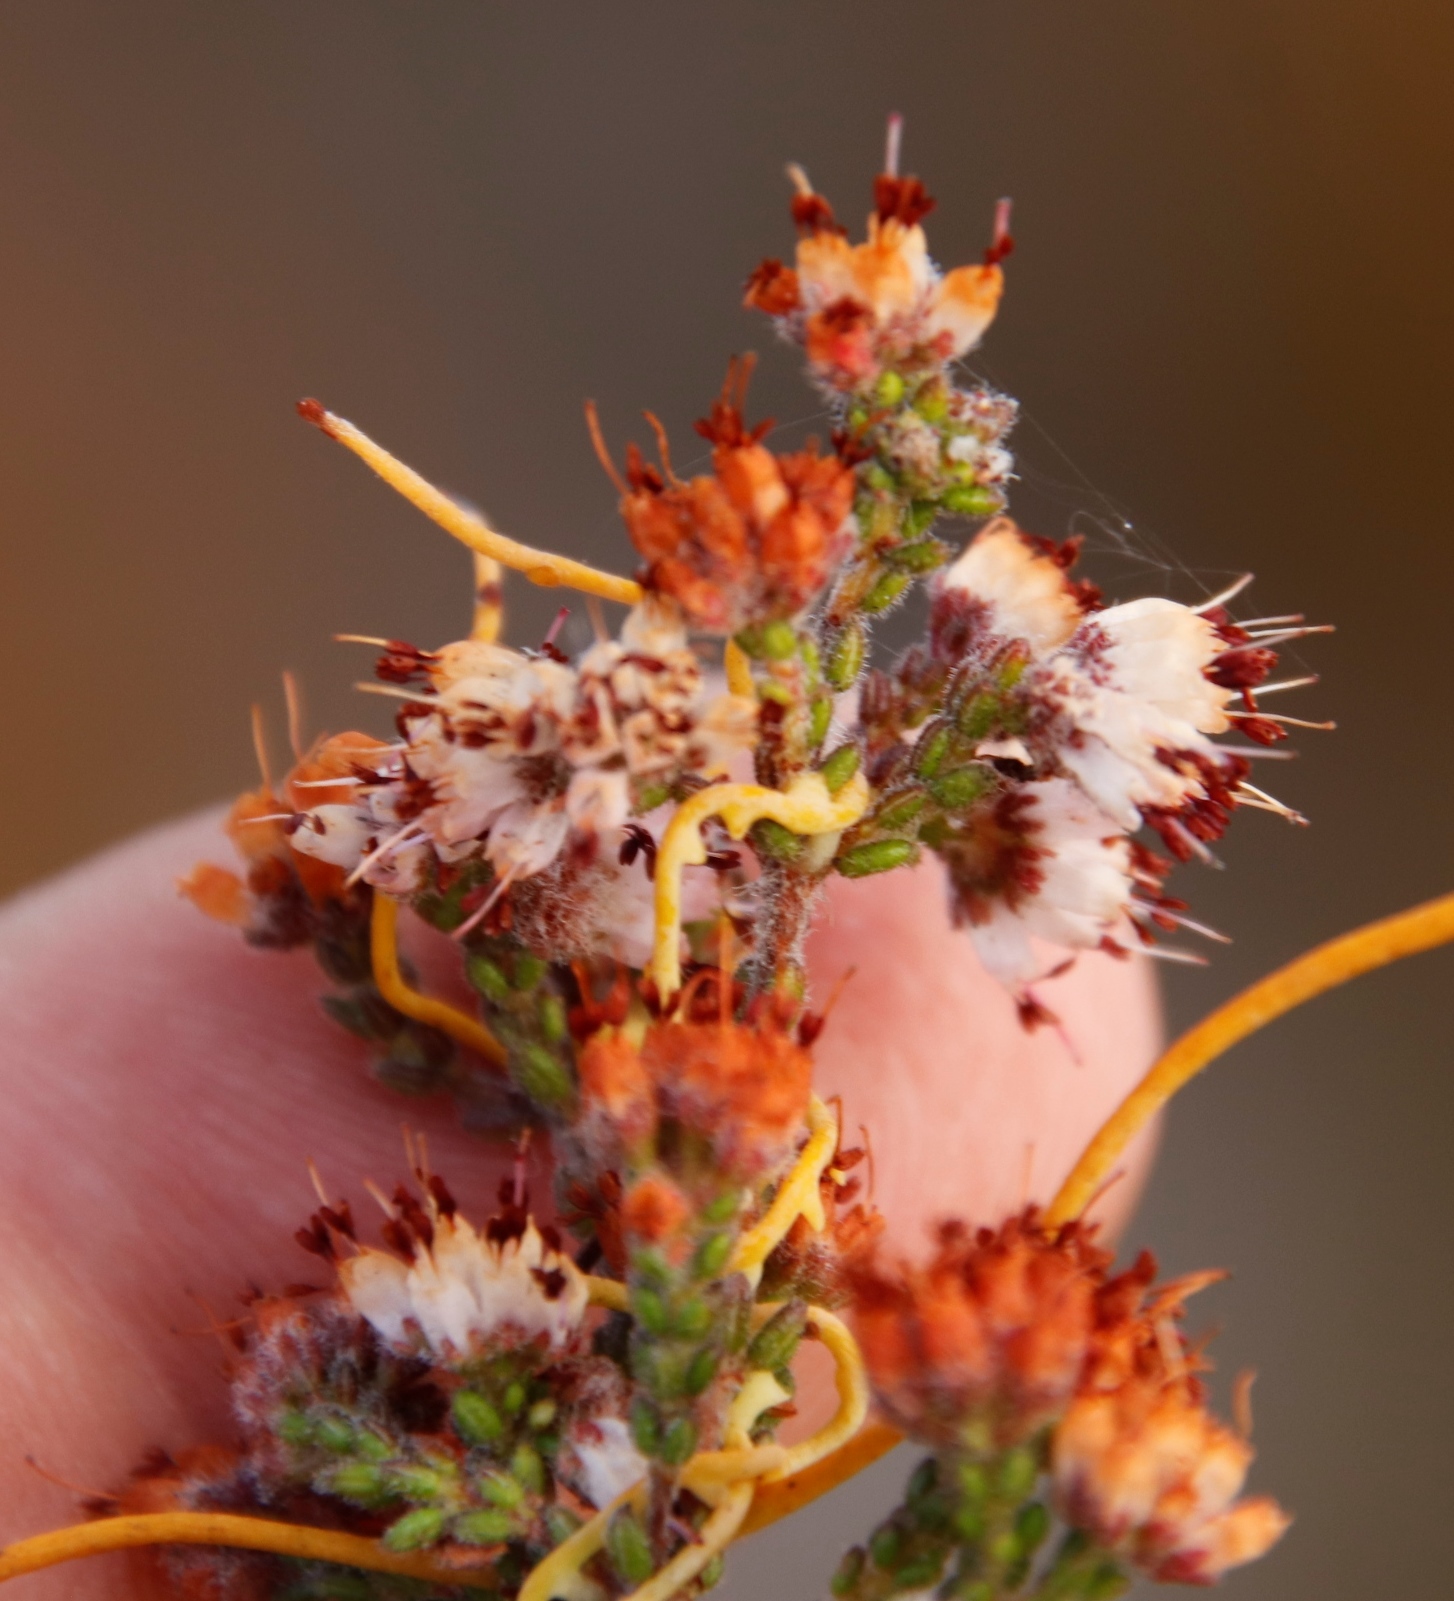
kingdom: Plantae
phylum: Tracheophyta
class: Magnoliopsida
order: Ericales
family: Ericaceae
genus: Erica
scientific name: Erica ericoides
